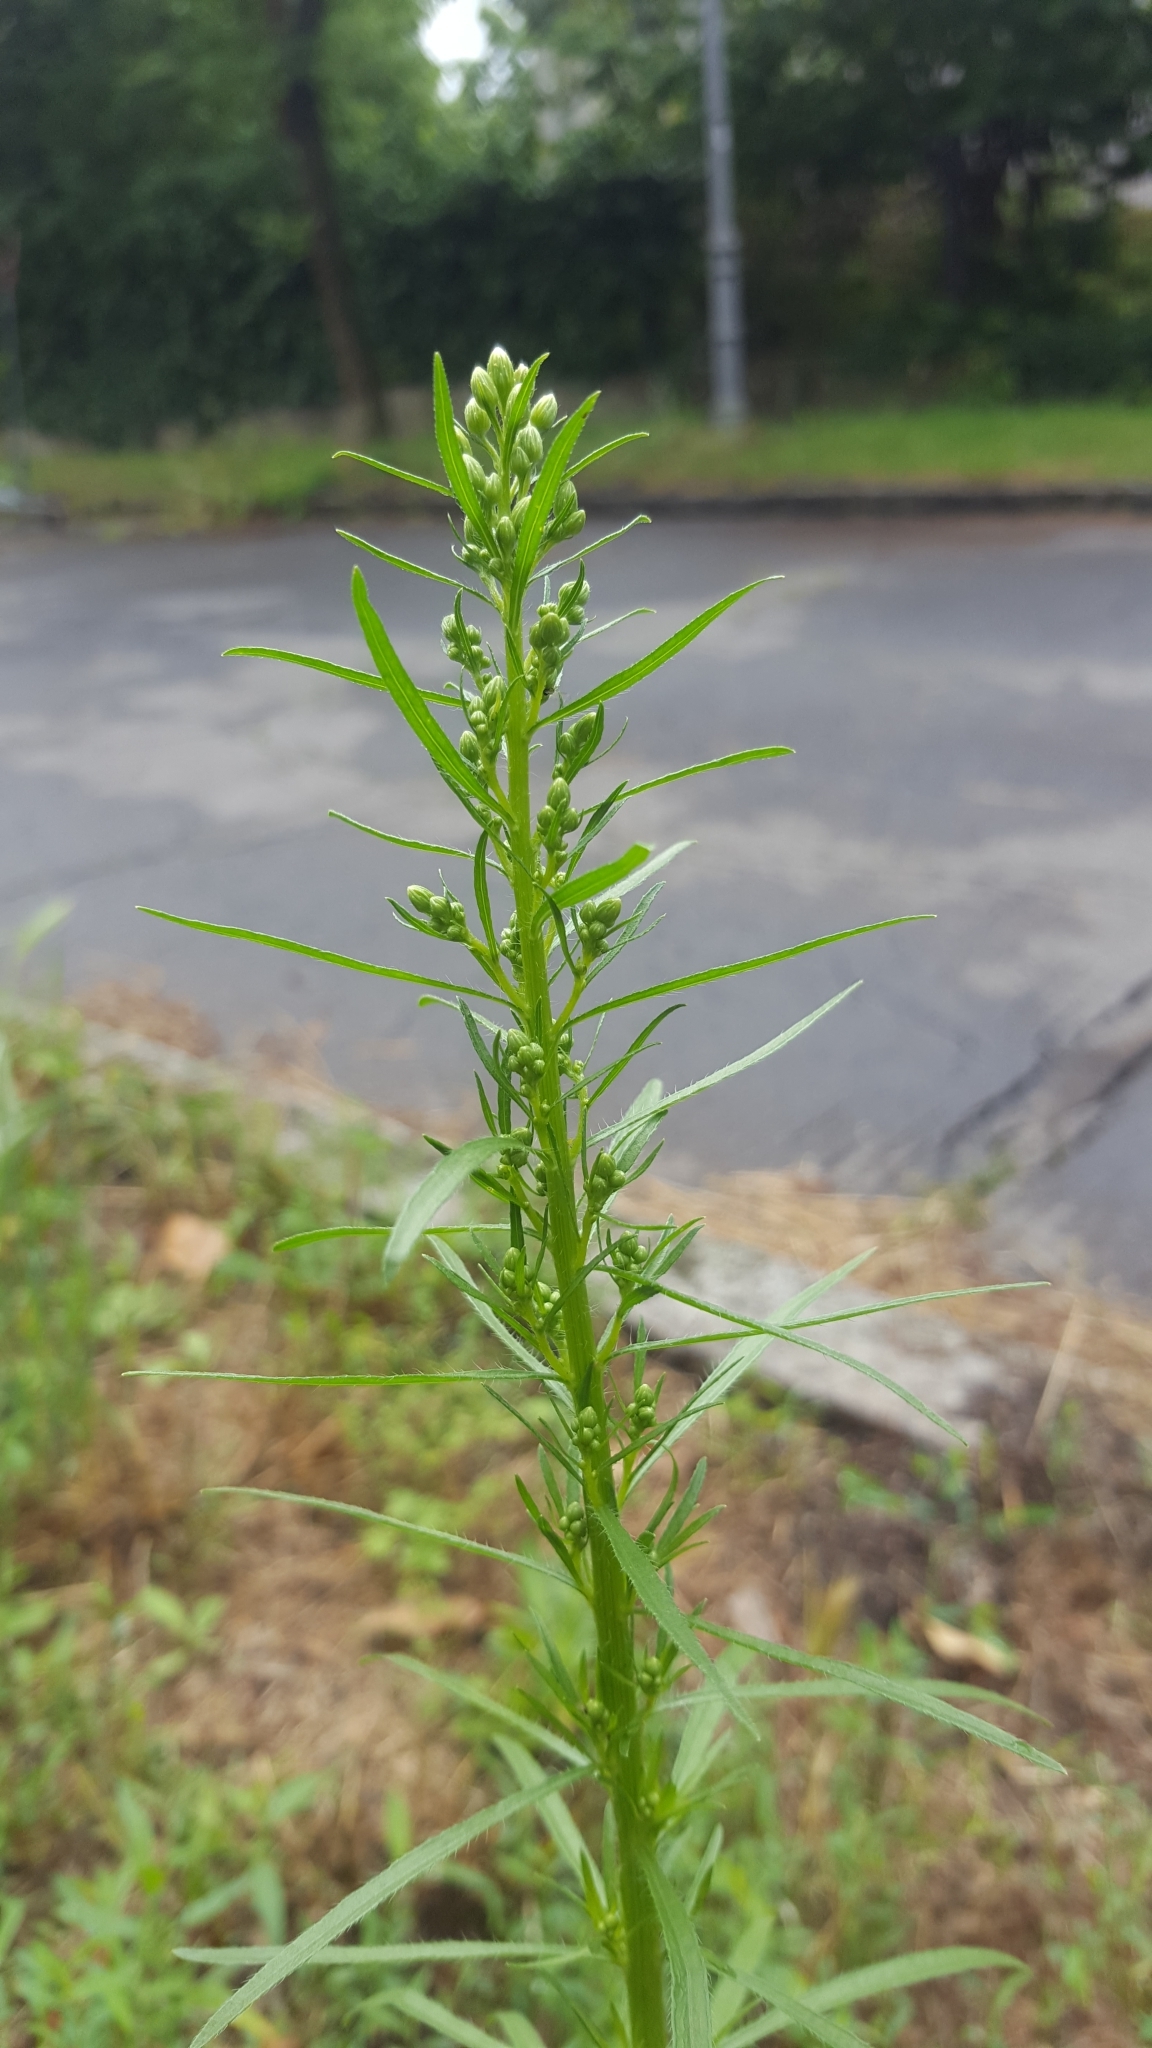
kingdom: Plantae
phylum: Tracheophyta
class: Magnoliopsida
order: Asterales
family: Asteraceae
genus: Erigeron
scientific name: Erigeron canadensis
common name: Canadian fleabane
